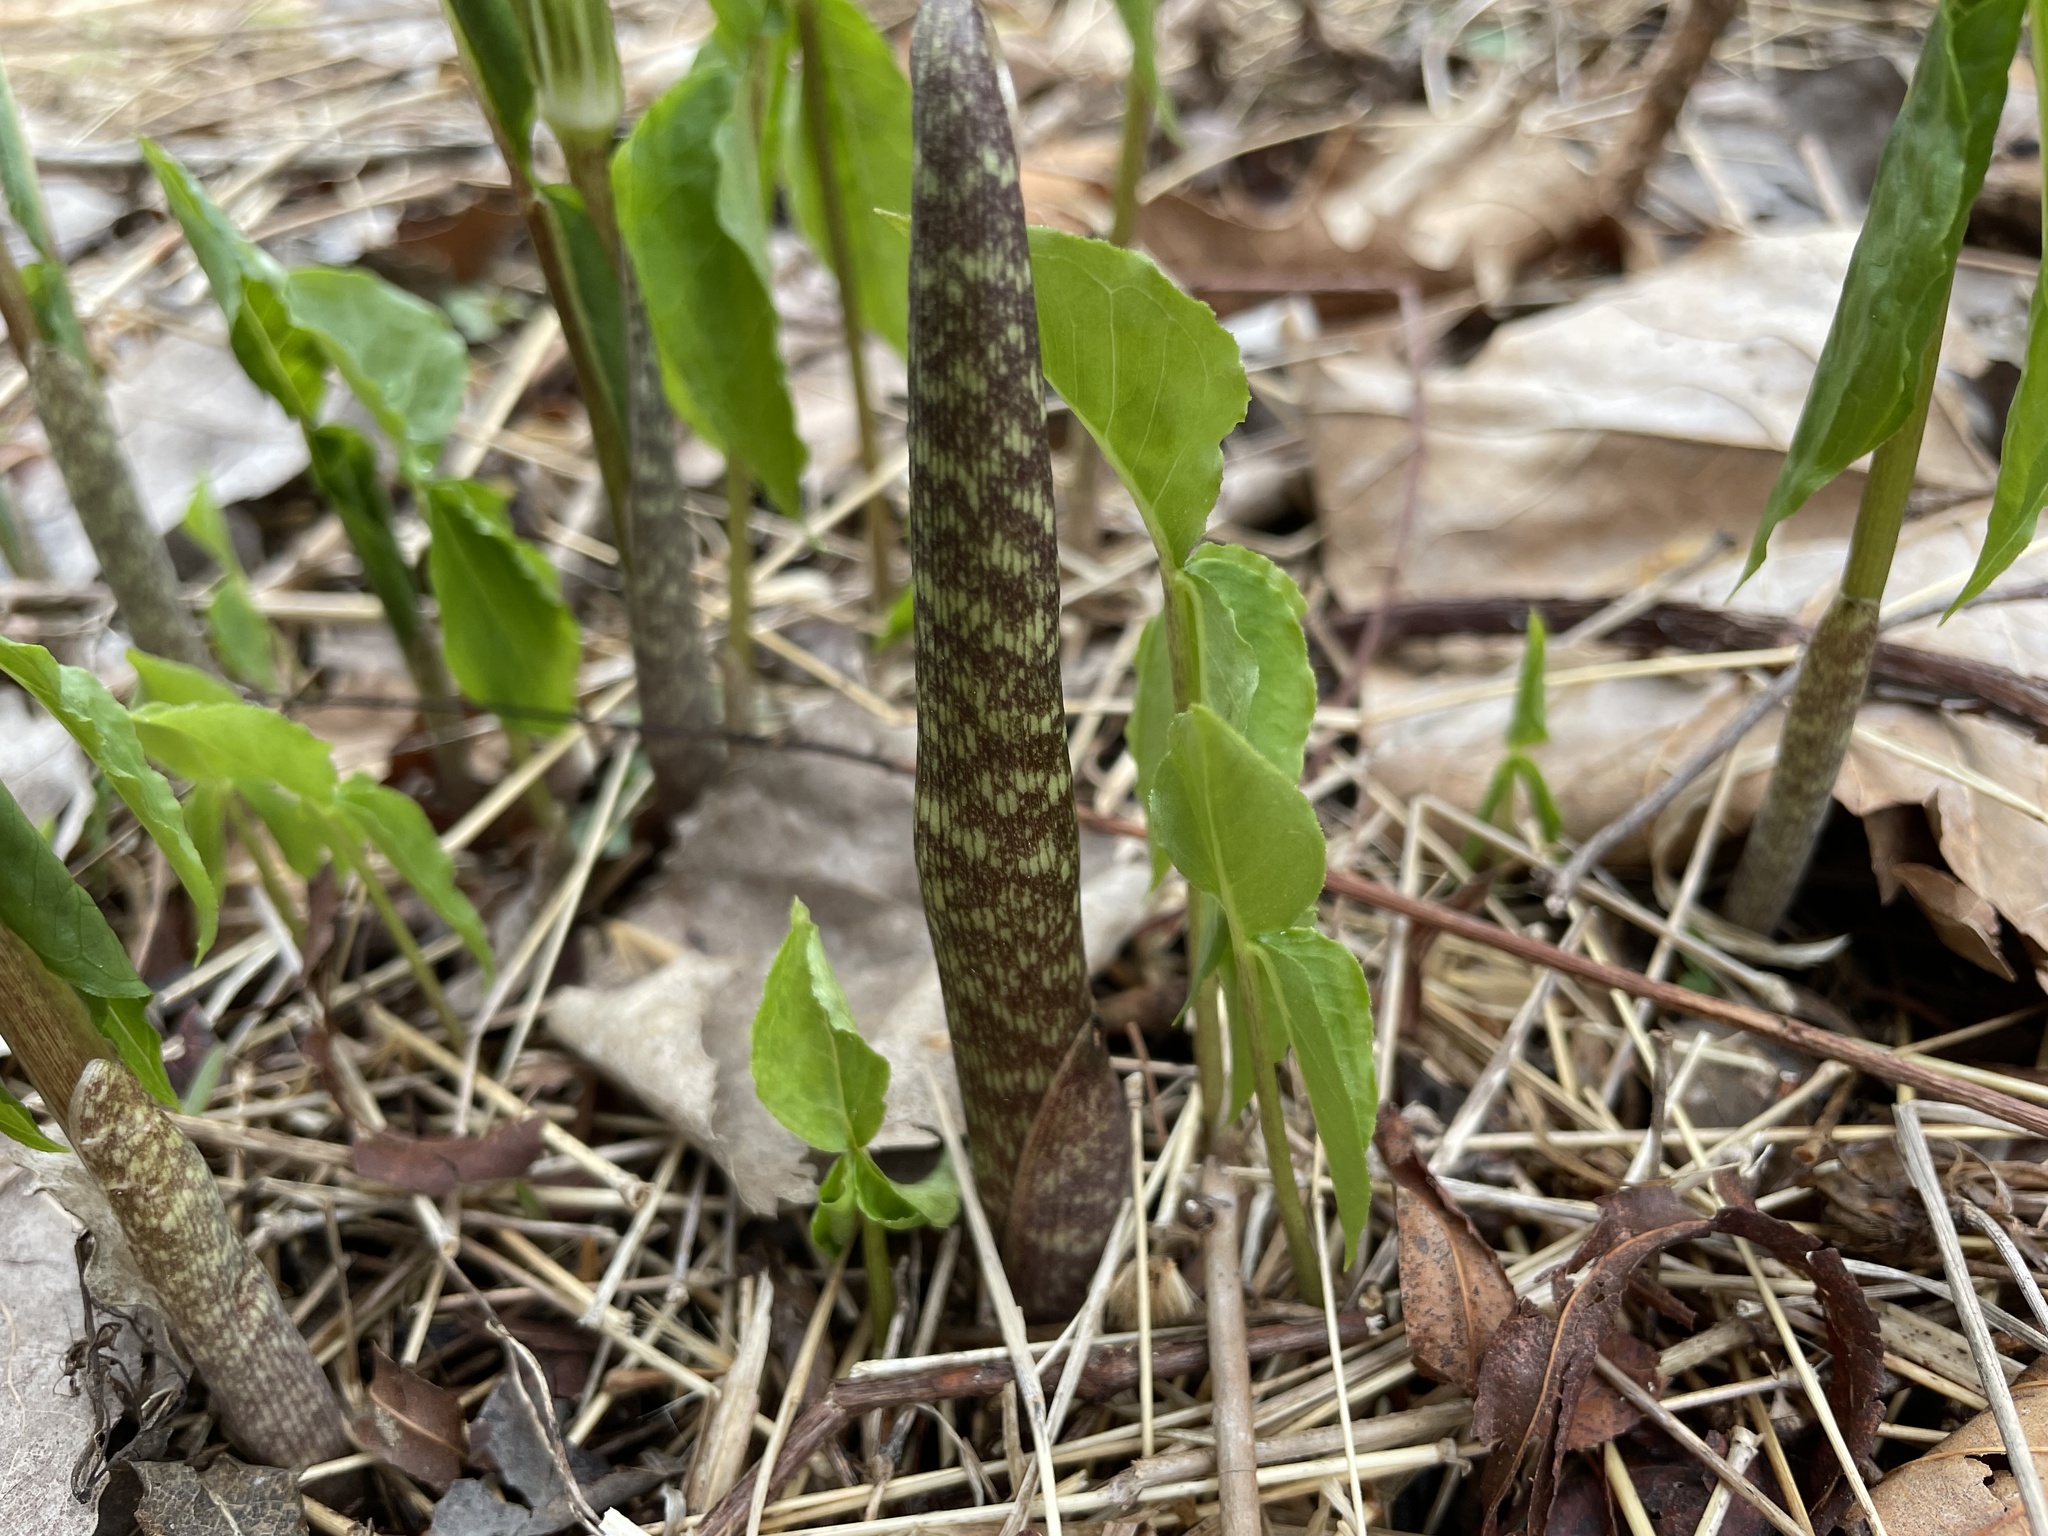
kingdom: Plantae
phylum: Tracheophyta
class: Liliopsida
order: Alismatales
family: Araceae
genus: Arisaema
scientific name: Arisaema triphyllum
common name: Jack-in-the-pulpit
